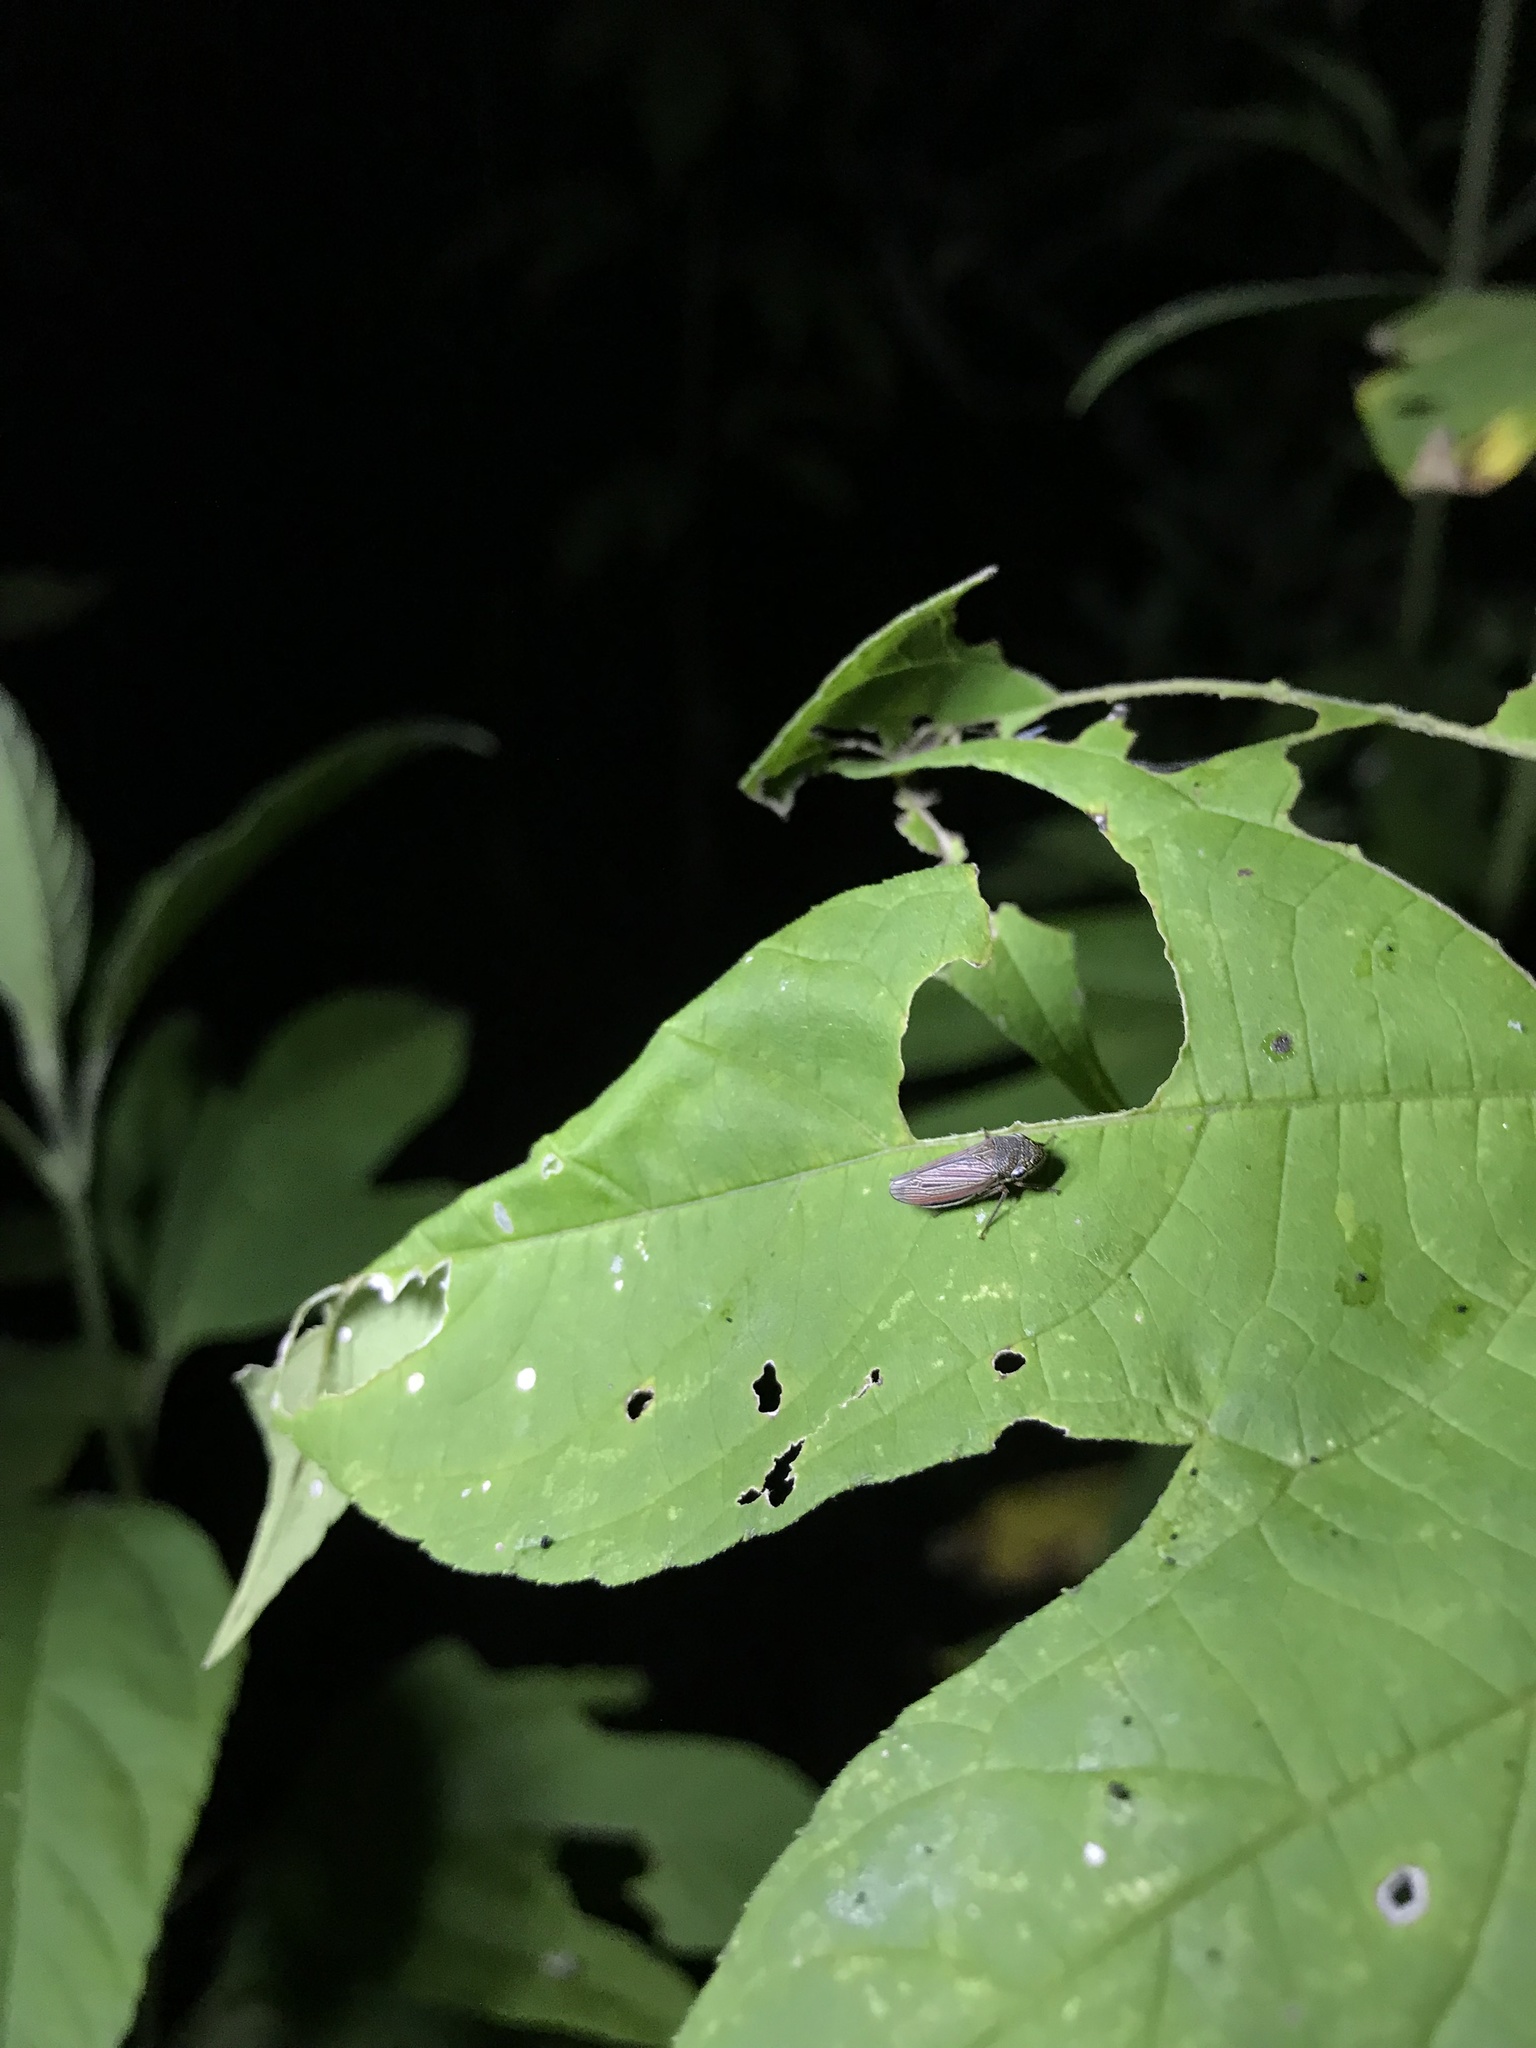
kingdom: Animalia
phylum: Arthropoda
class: Insecta
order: Hemiptera
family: Cicadellidae
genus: Cuerna
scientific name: Cuerna costalis
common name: Lateral-lined sharpshooter
